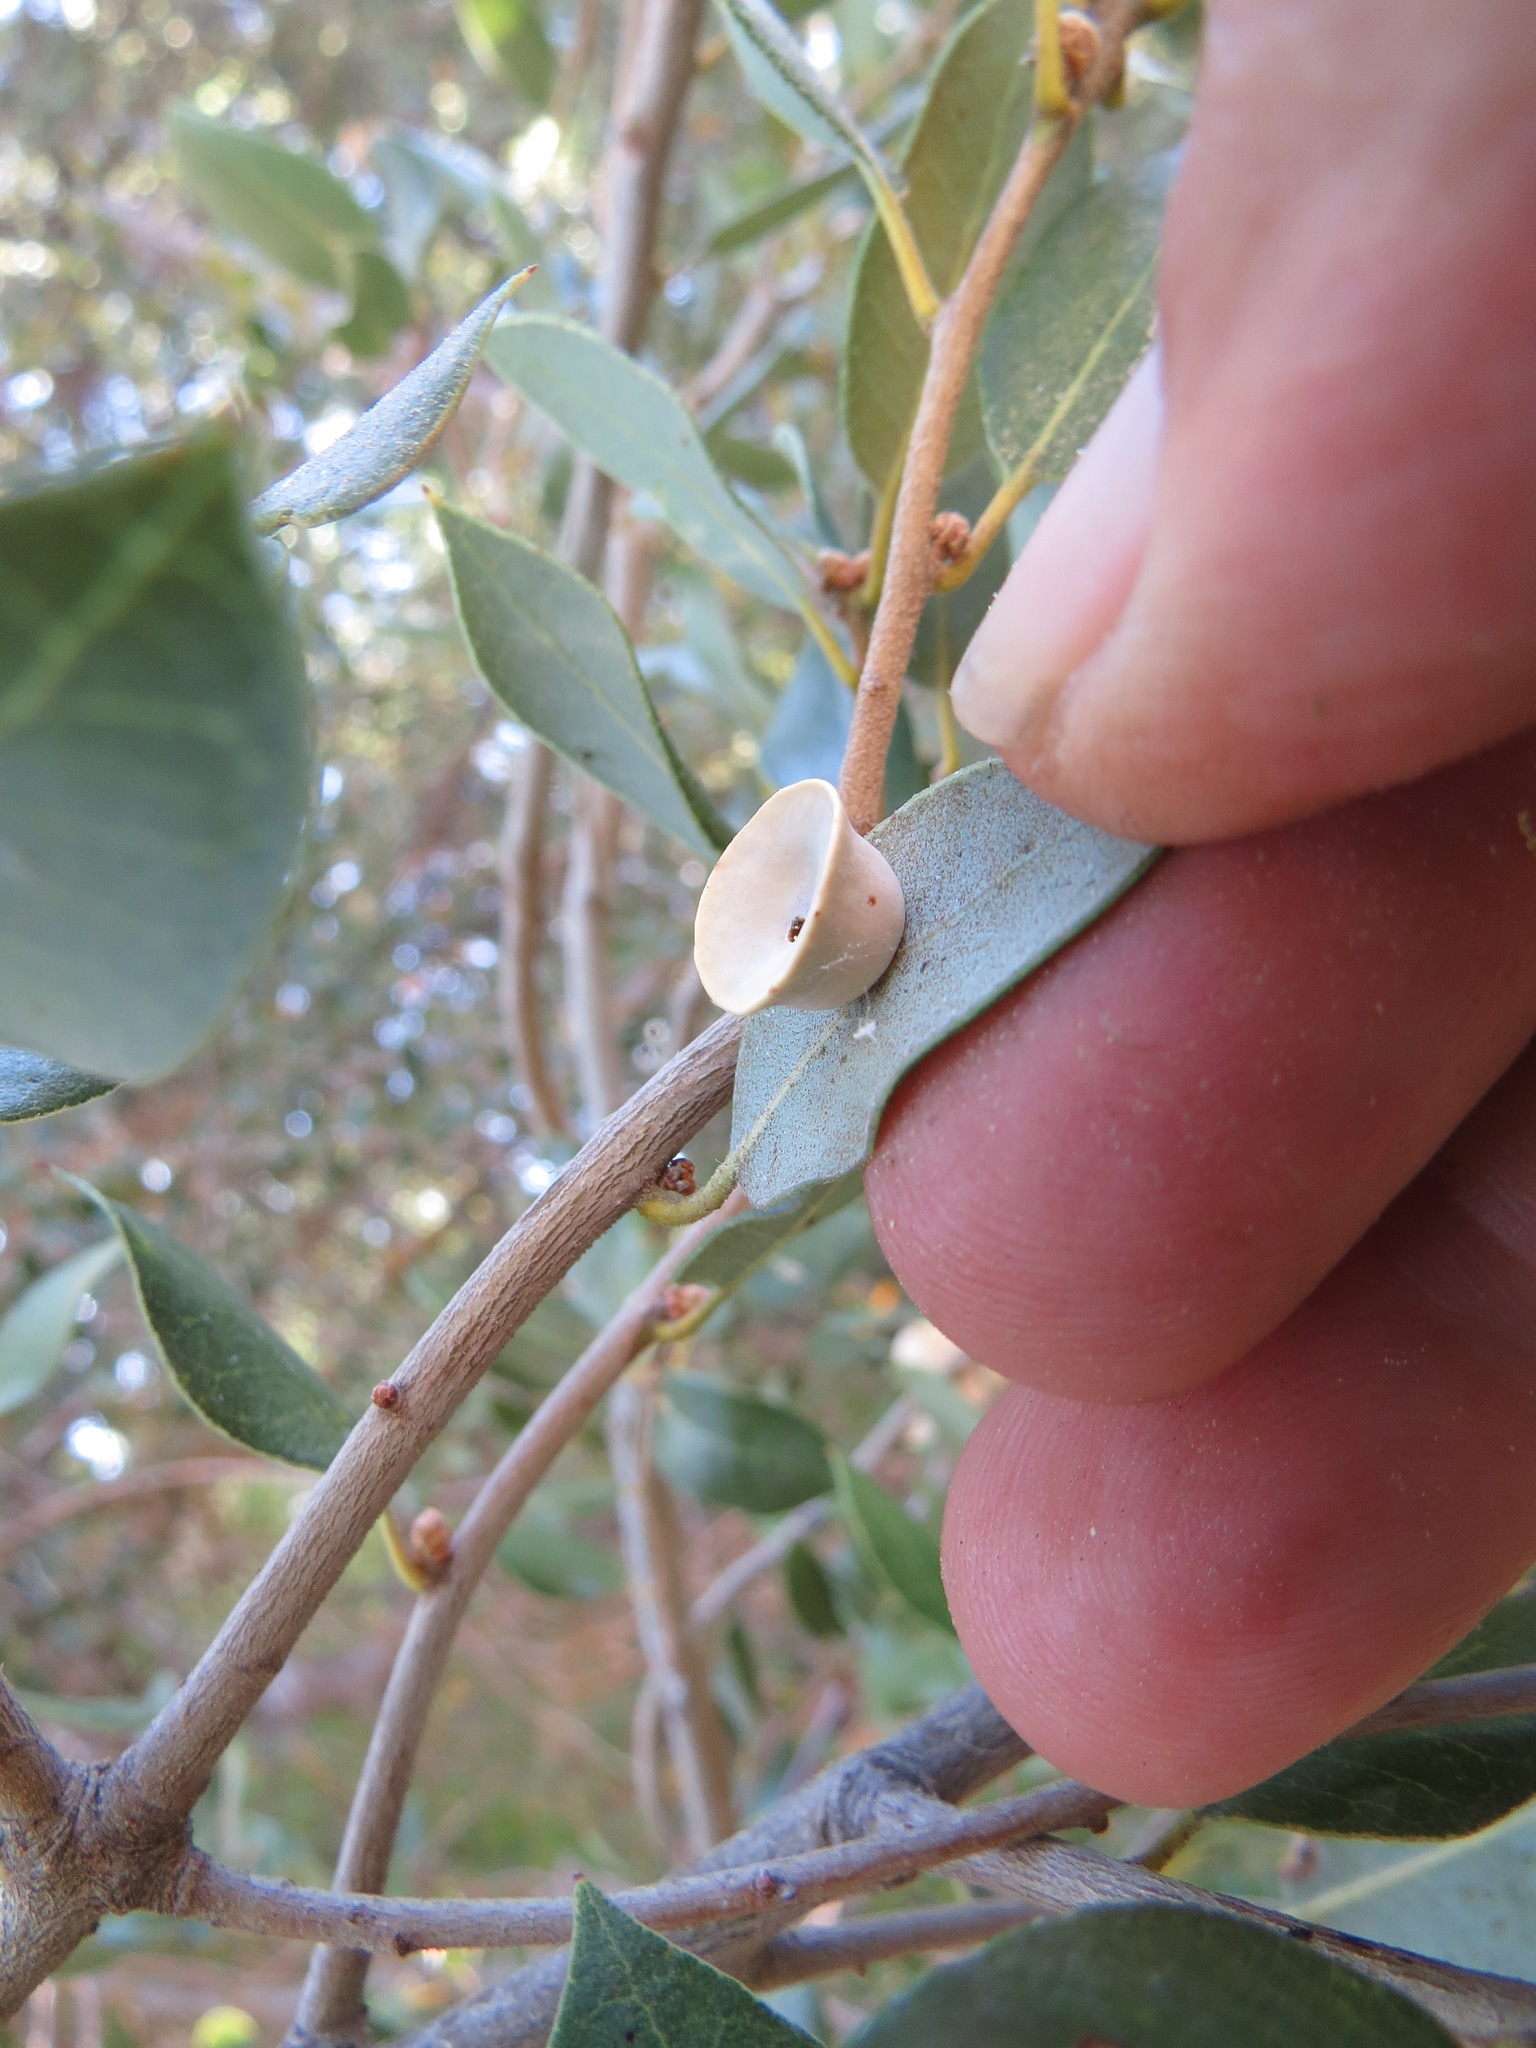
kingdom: Animalia
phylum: Arthropoda
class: Insecta
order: Hymenoptera
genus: Paracraspis
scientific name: Paracraspis
